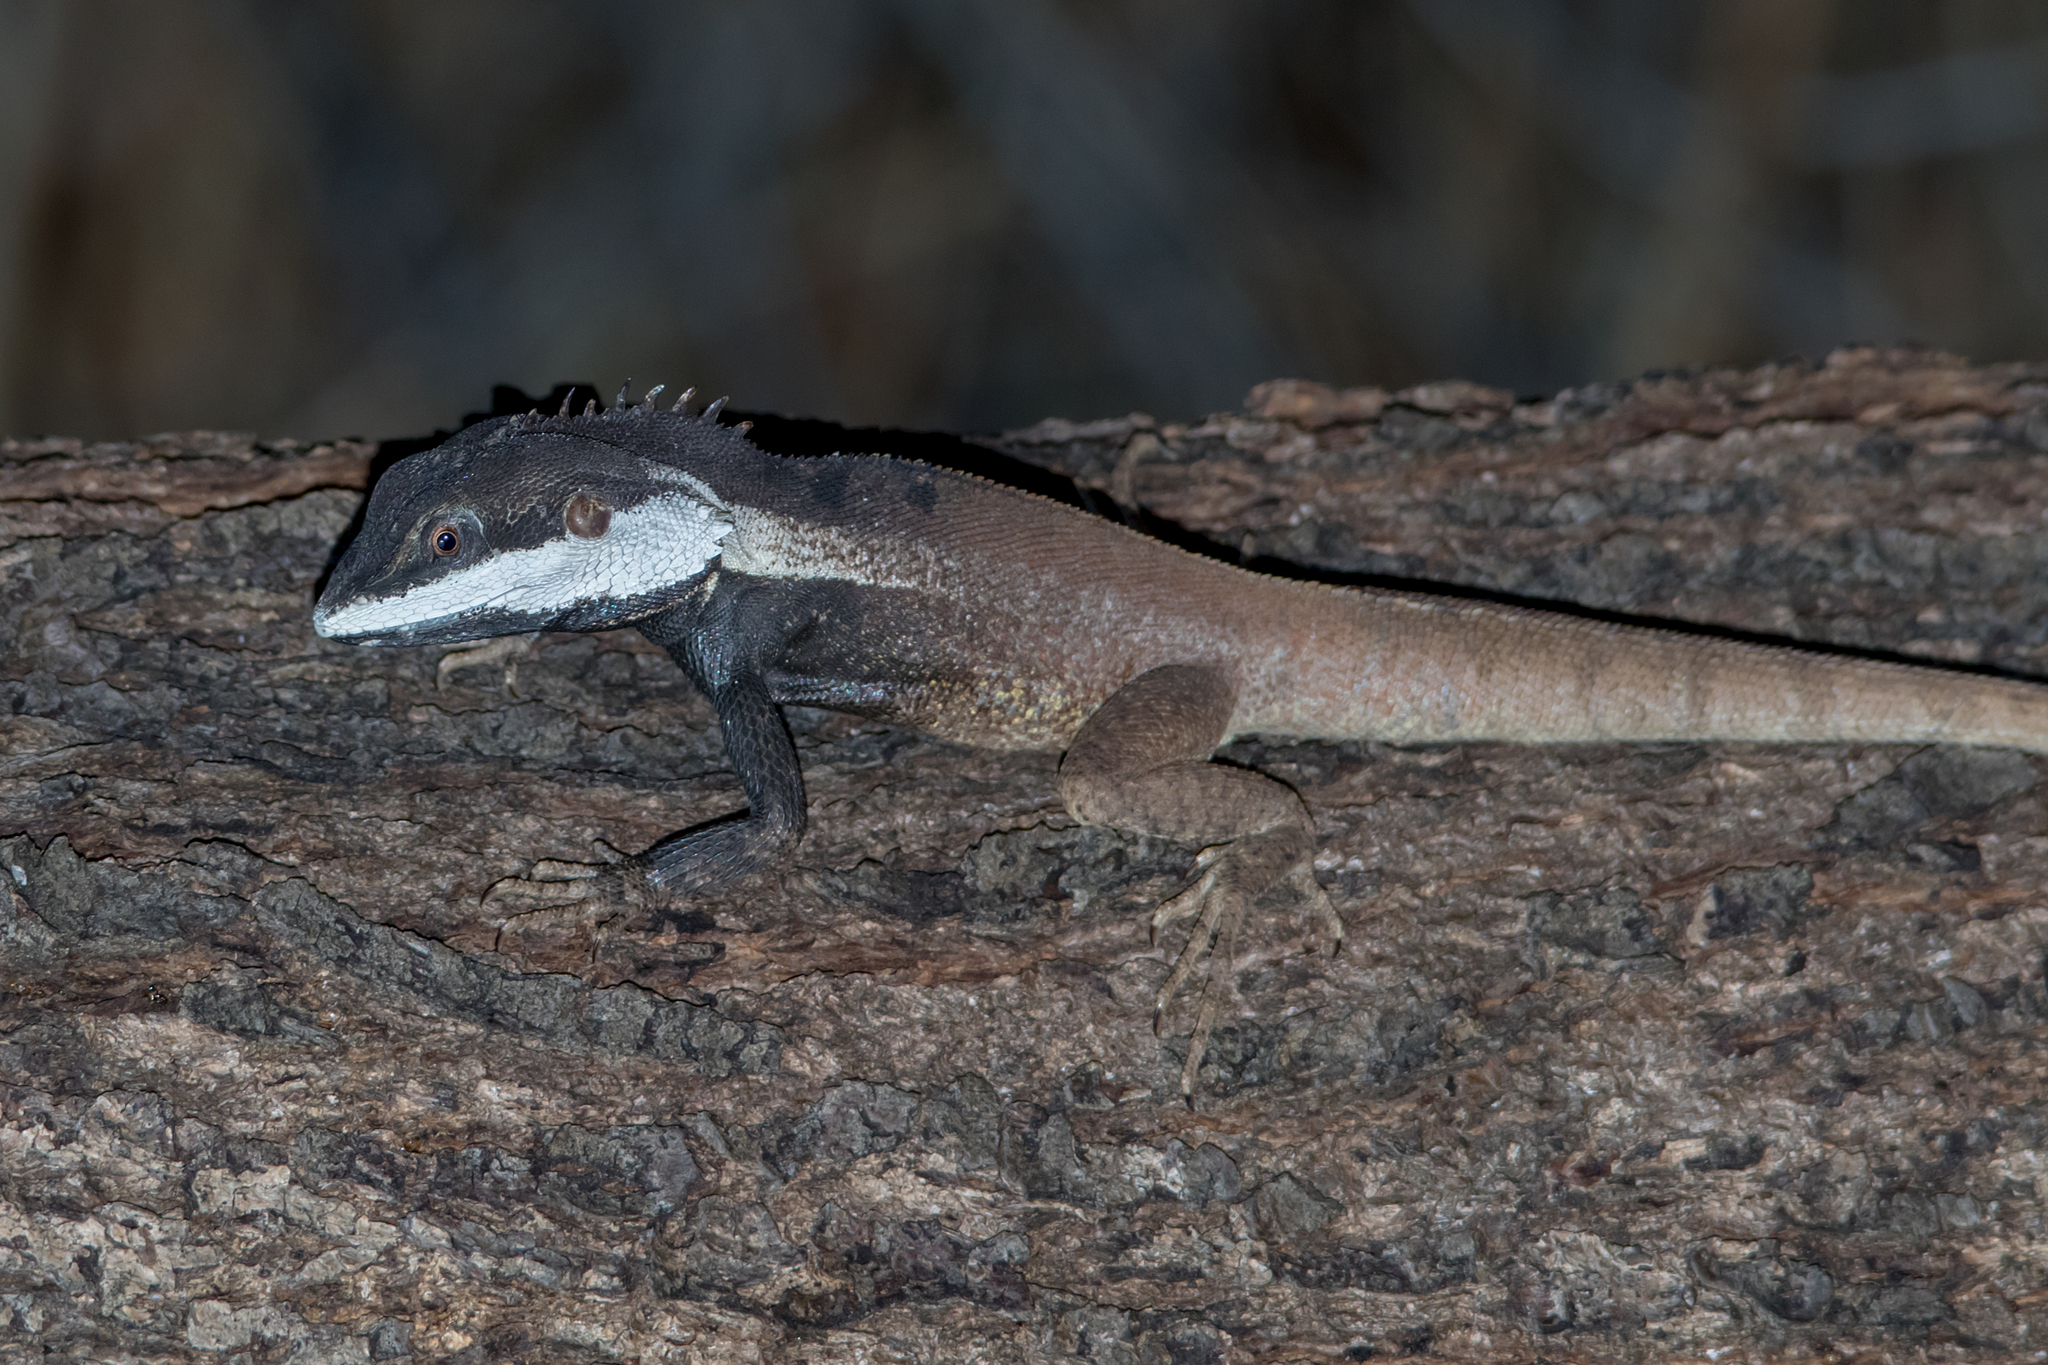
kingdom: Animalia
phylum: Chordata
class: Squamata
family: Agamidae
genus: Tropicagama
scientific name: Tropicagama temporalis
